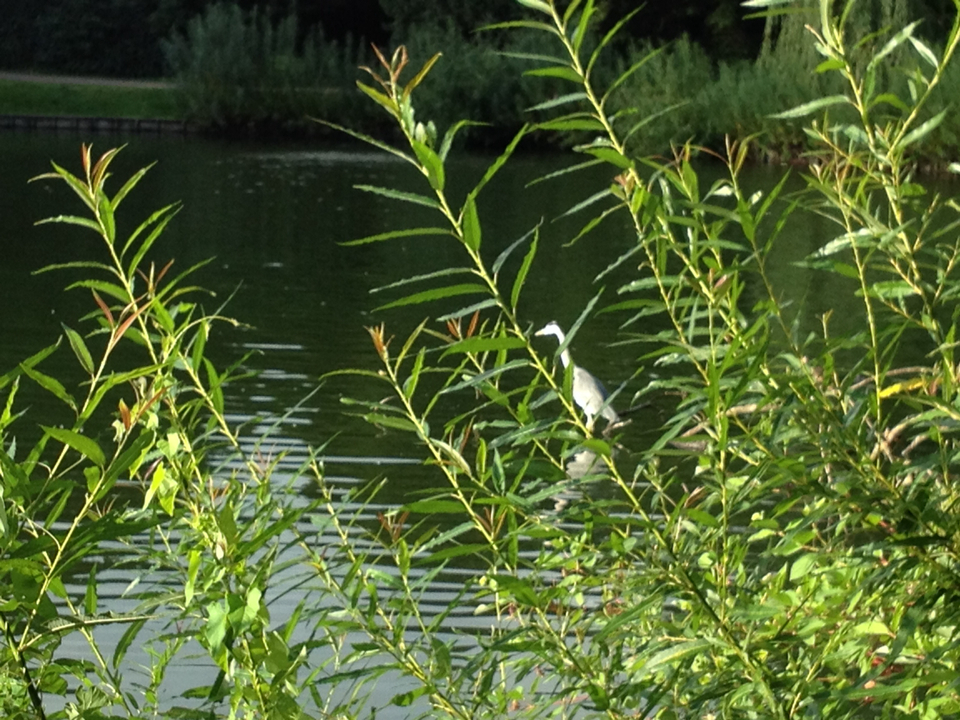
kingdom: Animalia
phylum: Chordata
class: Aves
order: Pelecaniformes
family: Ardeidae
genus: Ardea
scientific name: Ardea cinerea
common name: Grey heron
